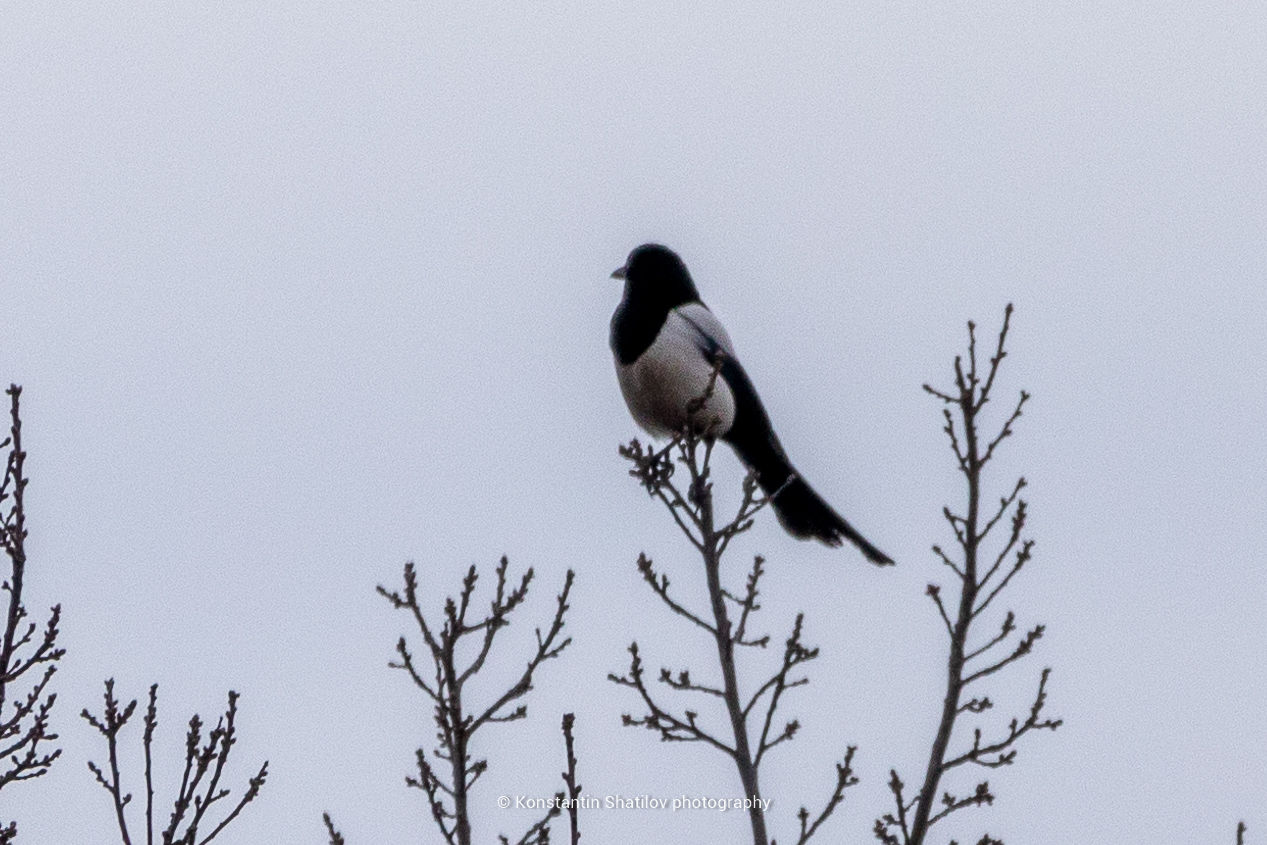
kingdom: Animalia
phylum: Chordata
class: Aves
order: Passeriformes
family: Corvidae
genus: Pica
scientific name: Pica pica
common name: Eurasian magpie
